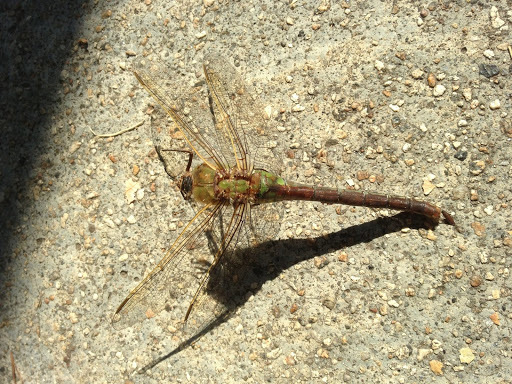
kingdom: Animalia
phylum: Arthropoda
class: Insecta
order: Odonata
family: Aeshnidae
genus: Anax
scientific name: Anax junius
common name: Common green darner
